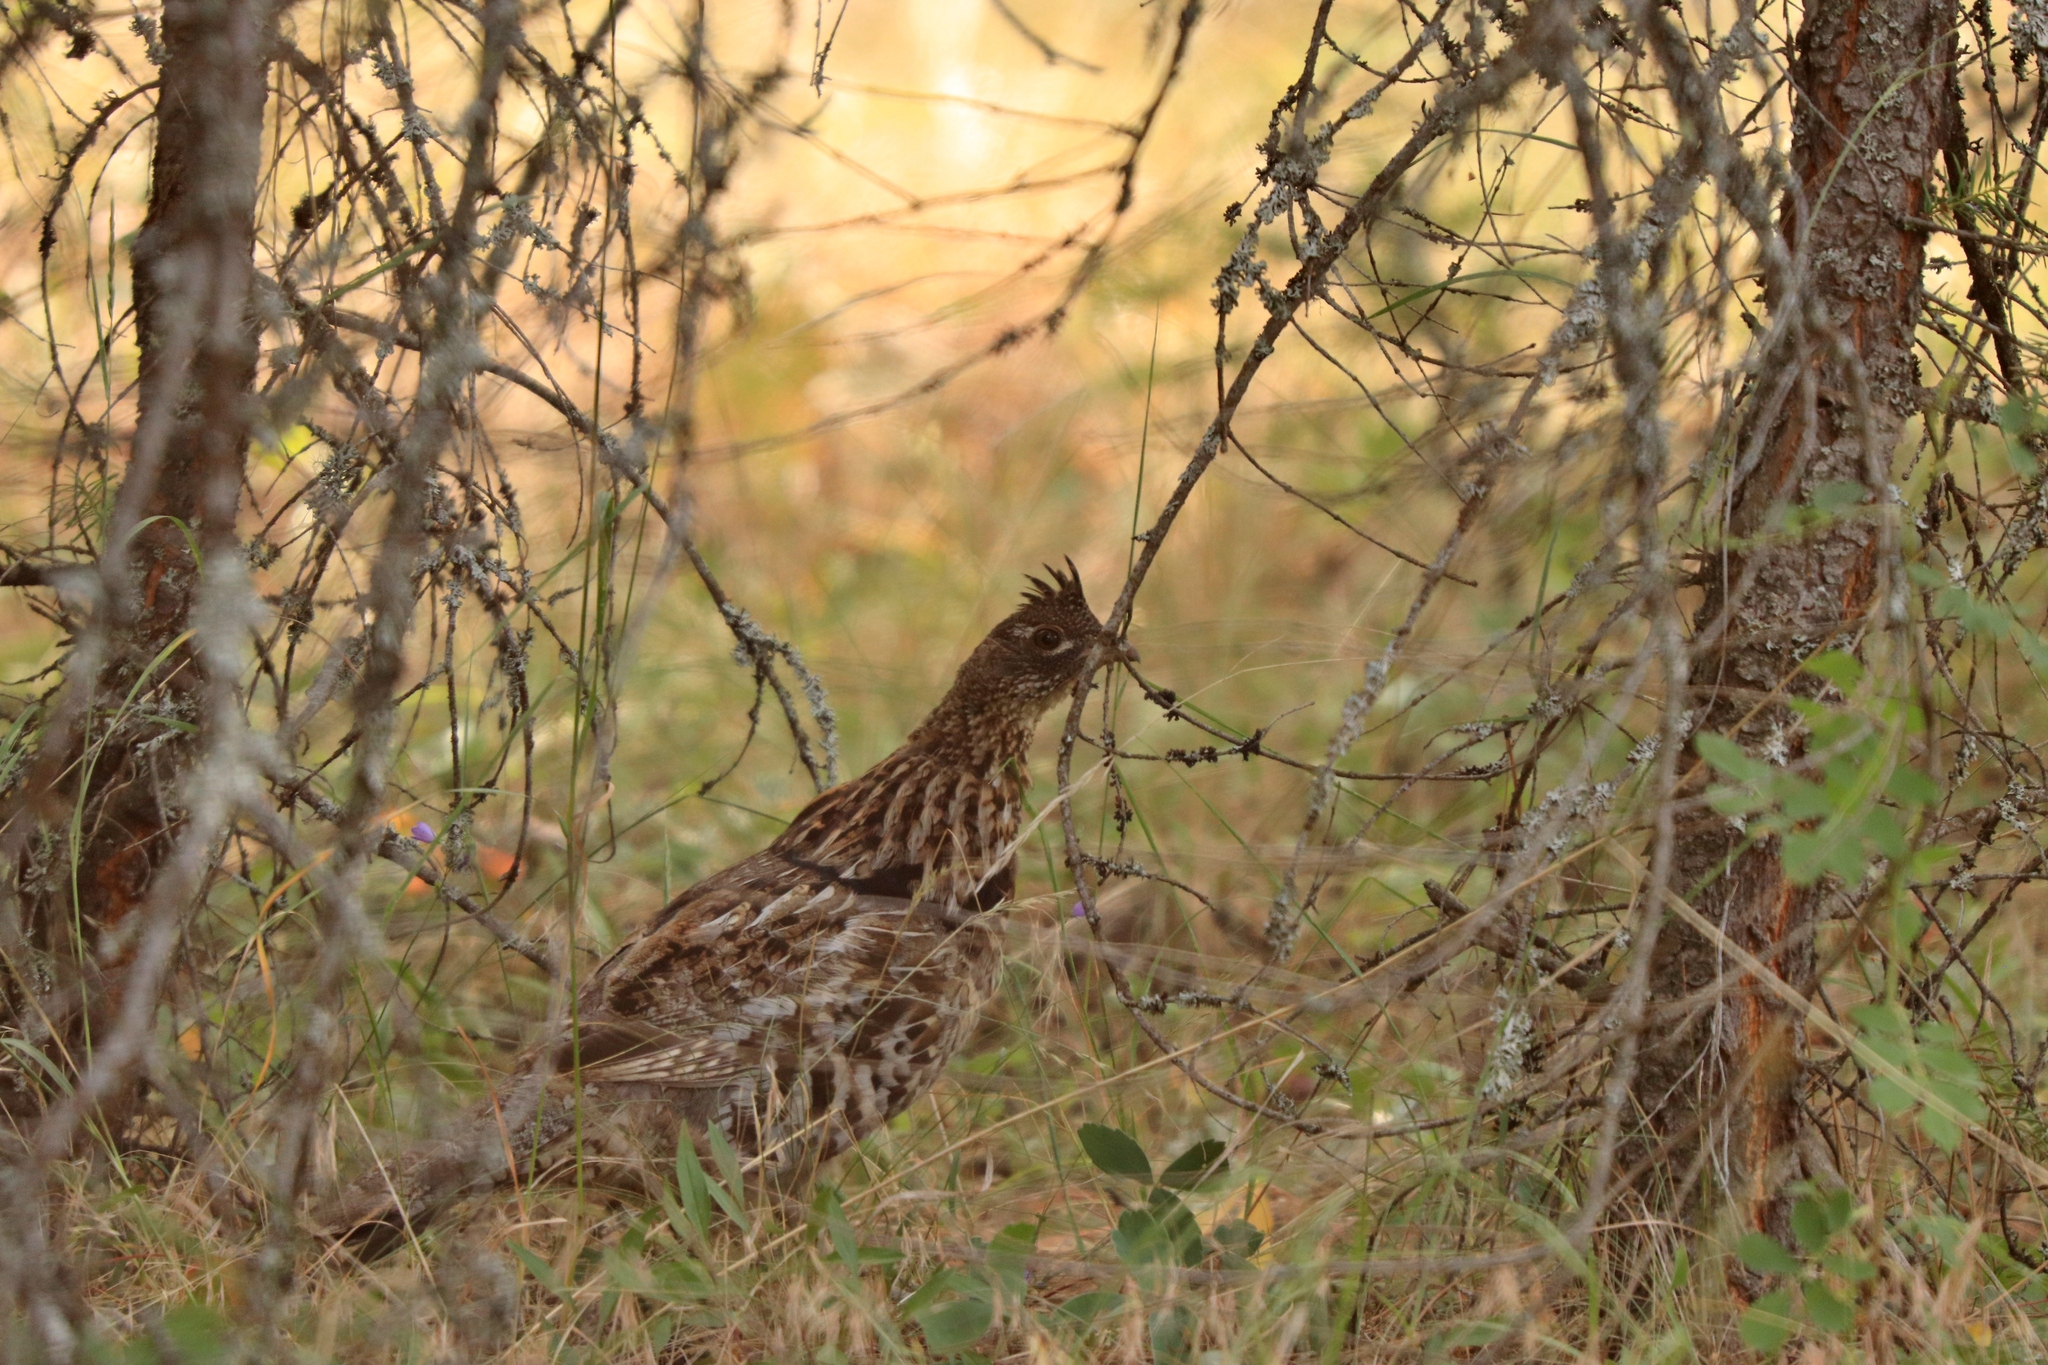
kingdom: Animalia
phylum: Chordata
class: Aves
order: Galliformes
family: Phasianidae
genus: Bonasa
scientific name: Bonasa umbellus
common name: Ruffed grouse
